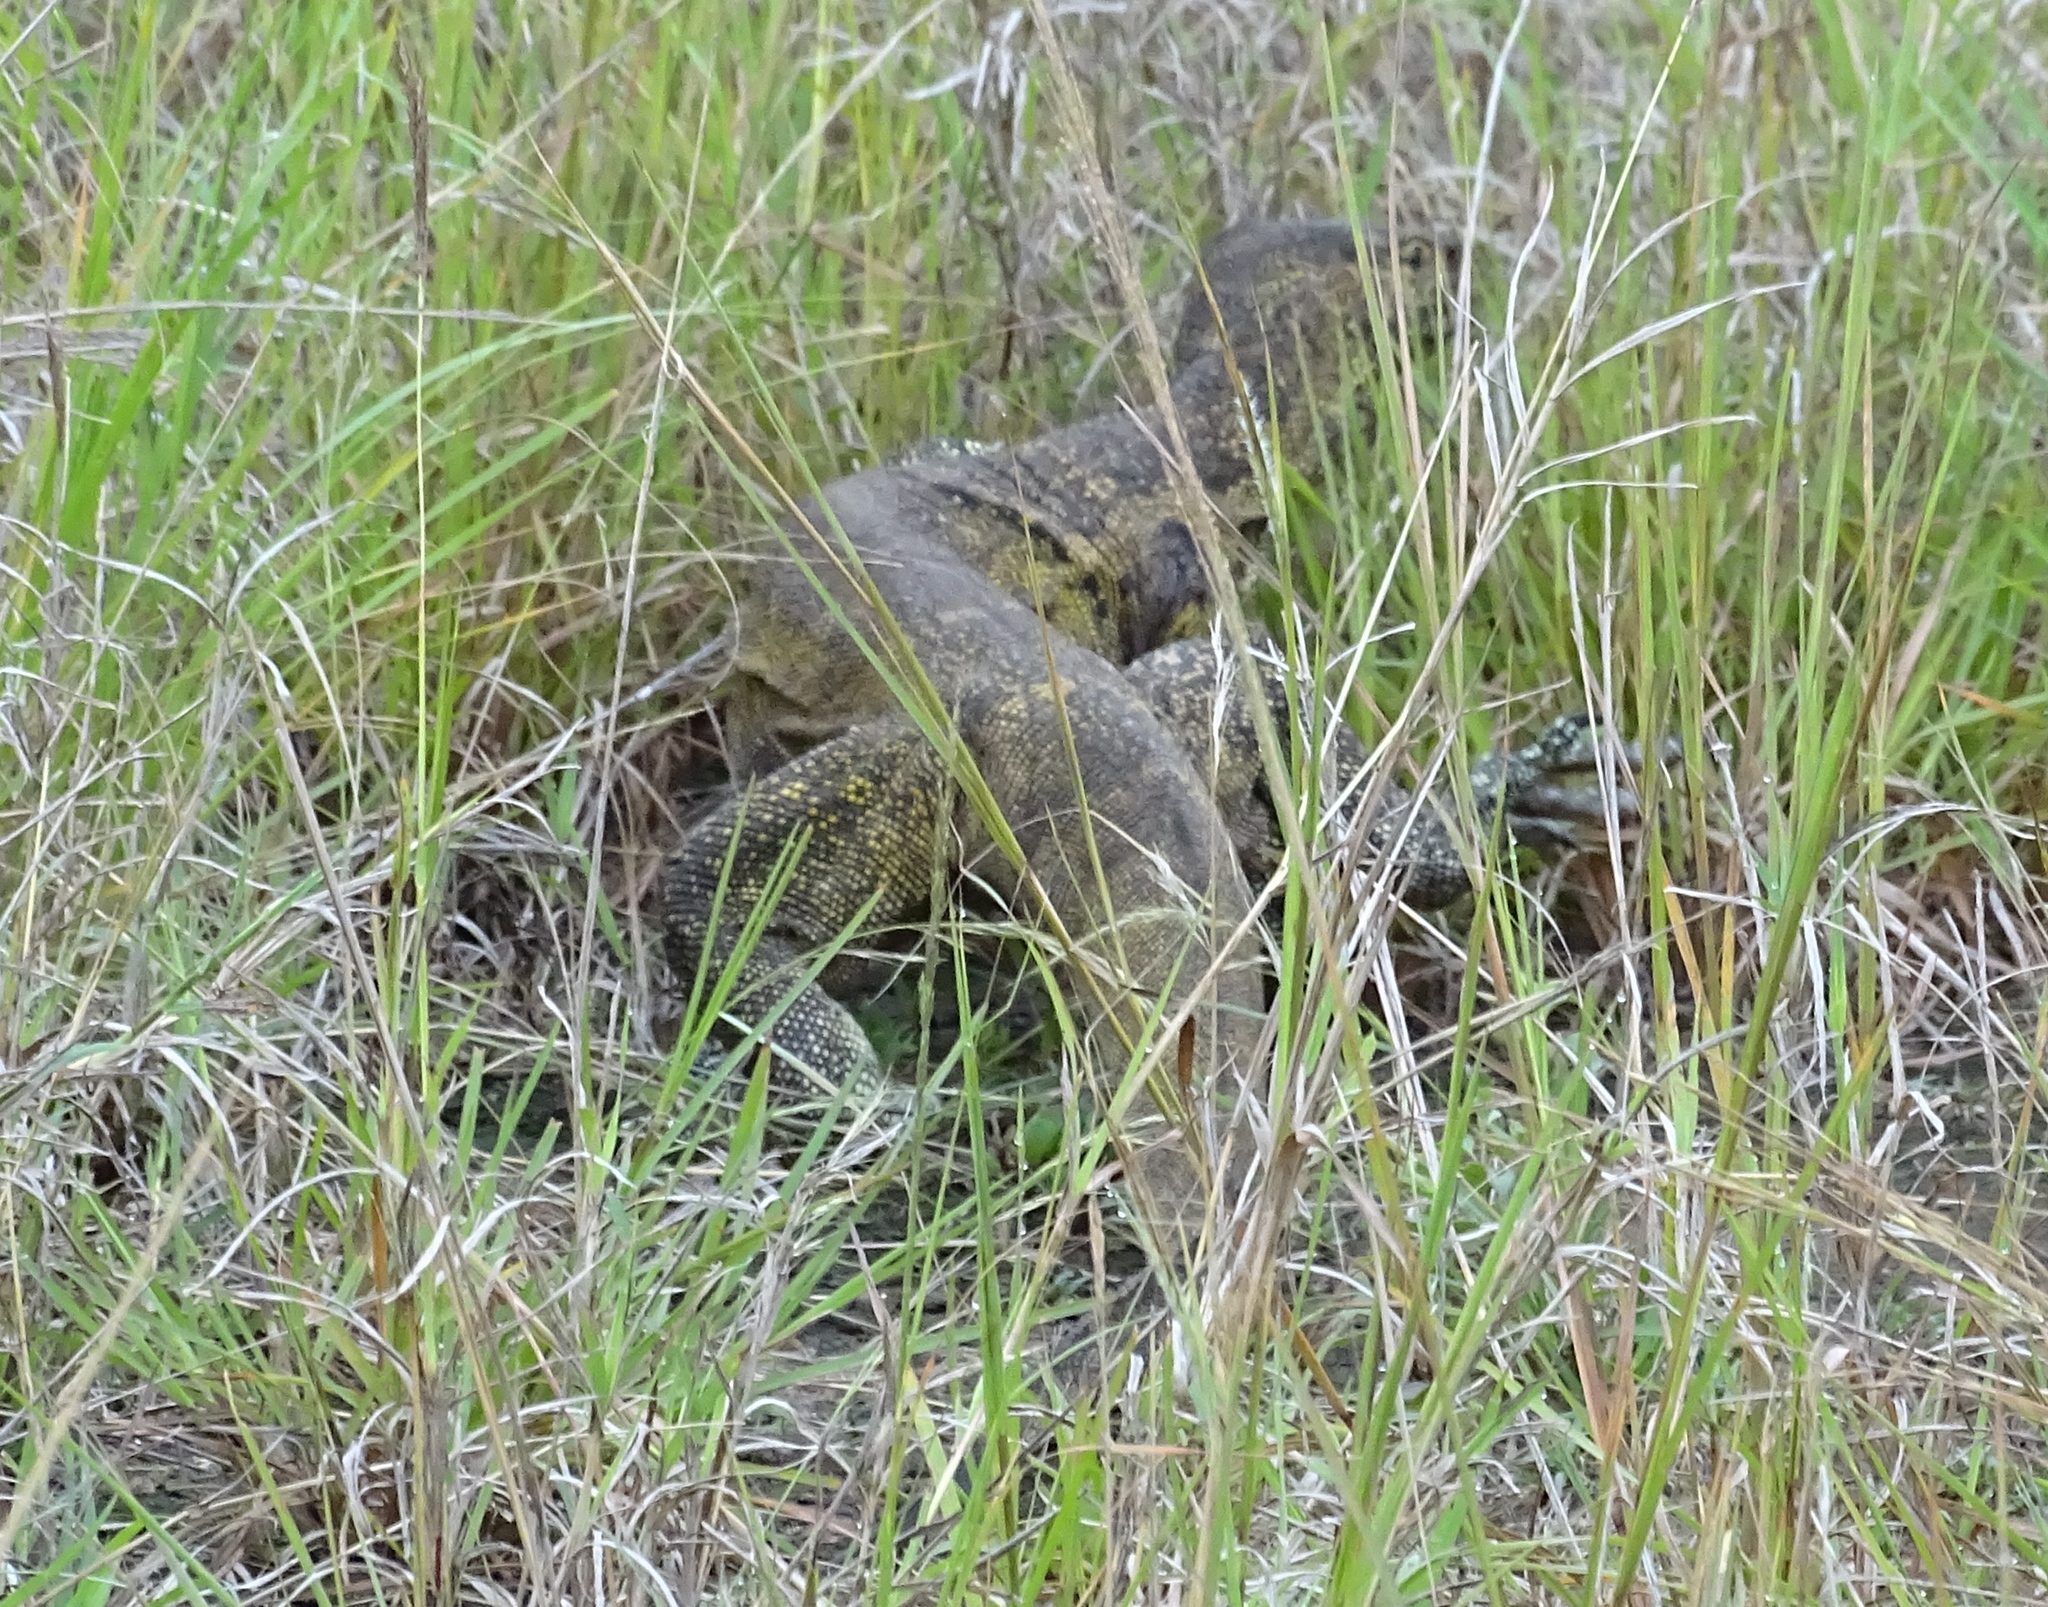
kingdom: Animalia
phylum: Chordata
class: Squamata
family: Varanidae
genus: Varanus
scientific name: Varanus niloticus
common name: Nile monitor
